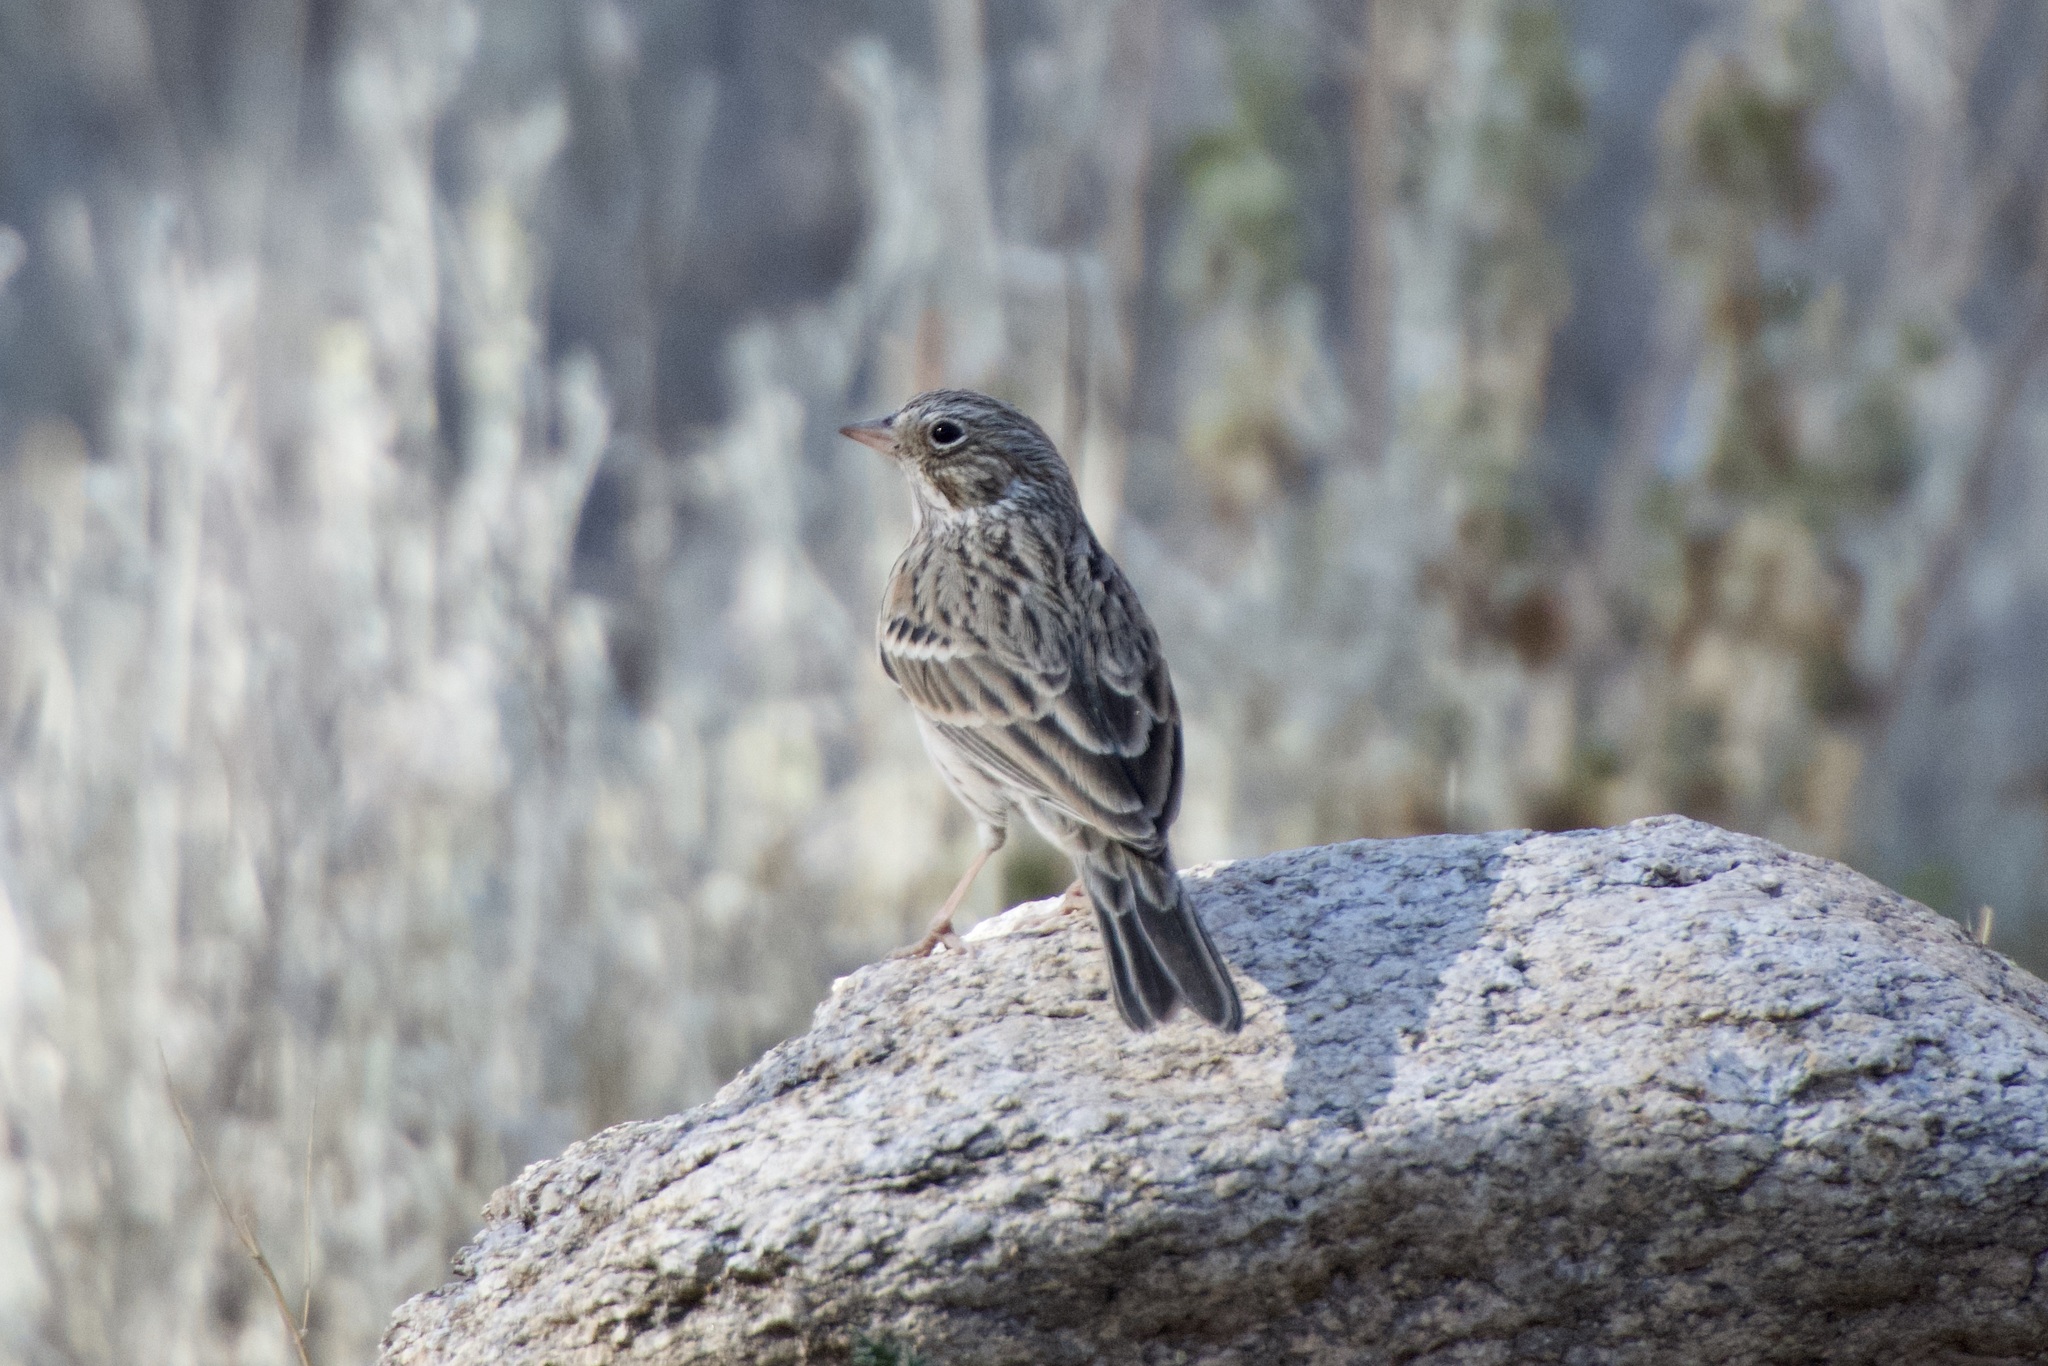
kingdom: Animalia
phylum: Chordata
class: Aves
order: Passeriformes
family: Passerellidae
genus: Pooecetes
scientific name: Pooecetes gramineus
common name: Vesper sparrow
